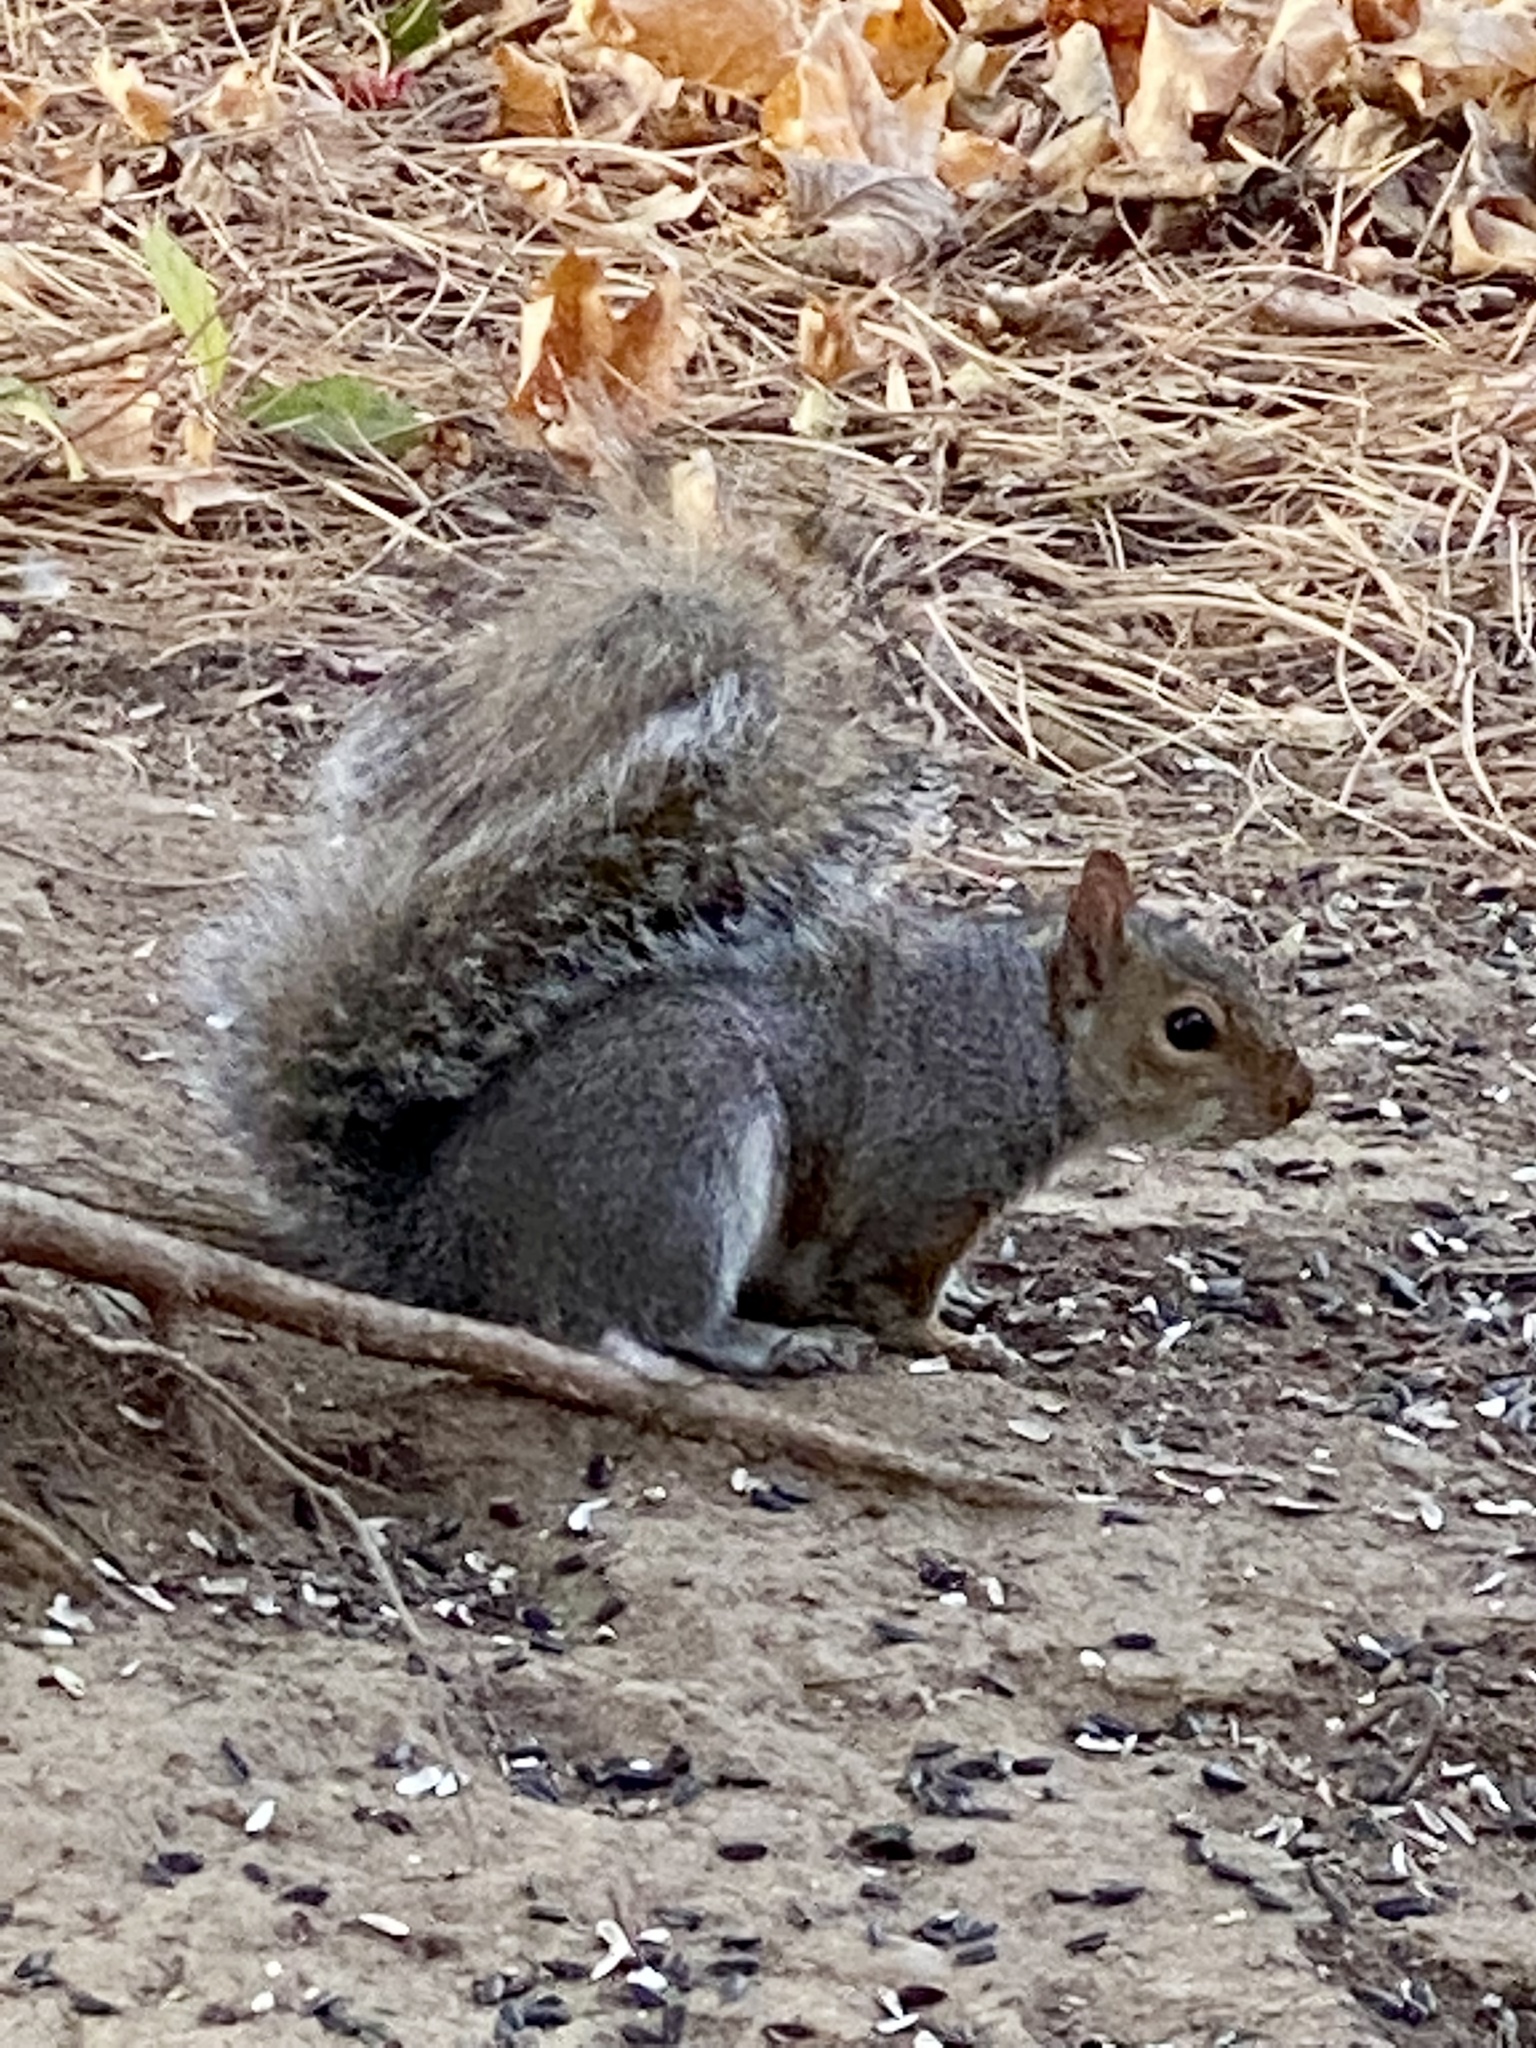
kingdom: Animalia
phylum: Chordata
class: Mammalia
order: Rodentia
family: Sciuridae
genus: Sciurus
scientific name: Sciurus carolinensis
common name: Eastern gray squirrel
